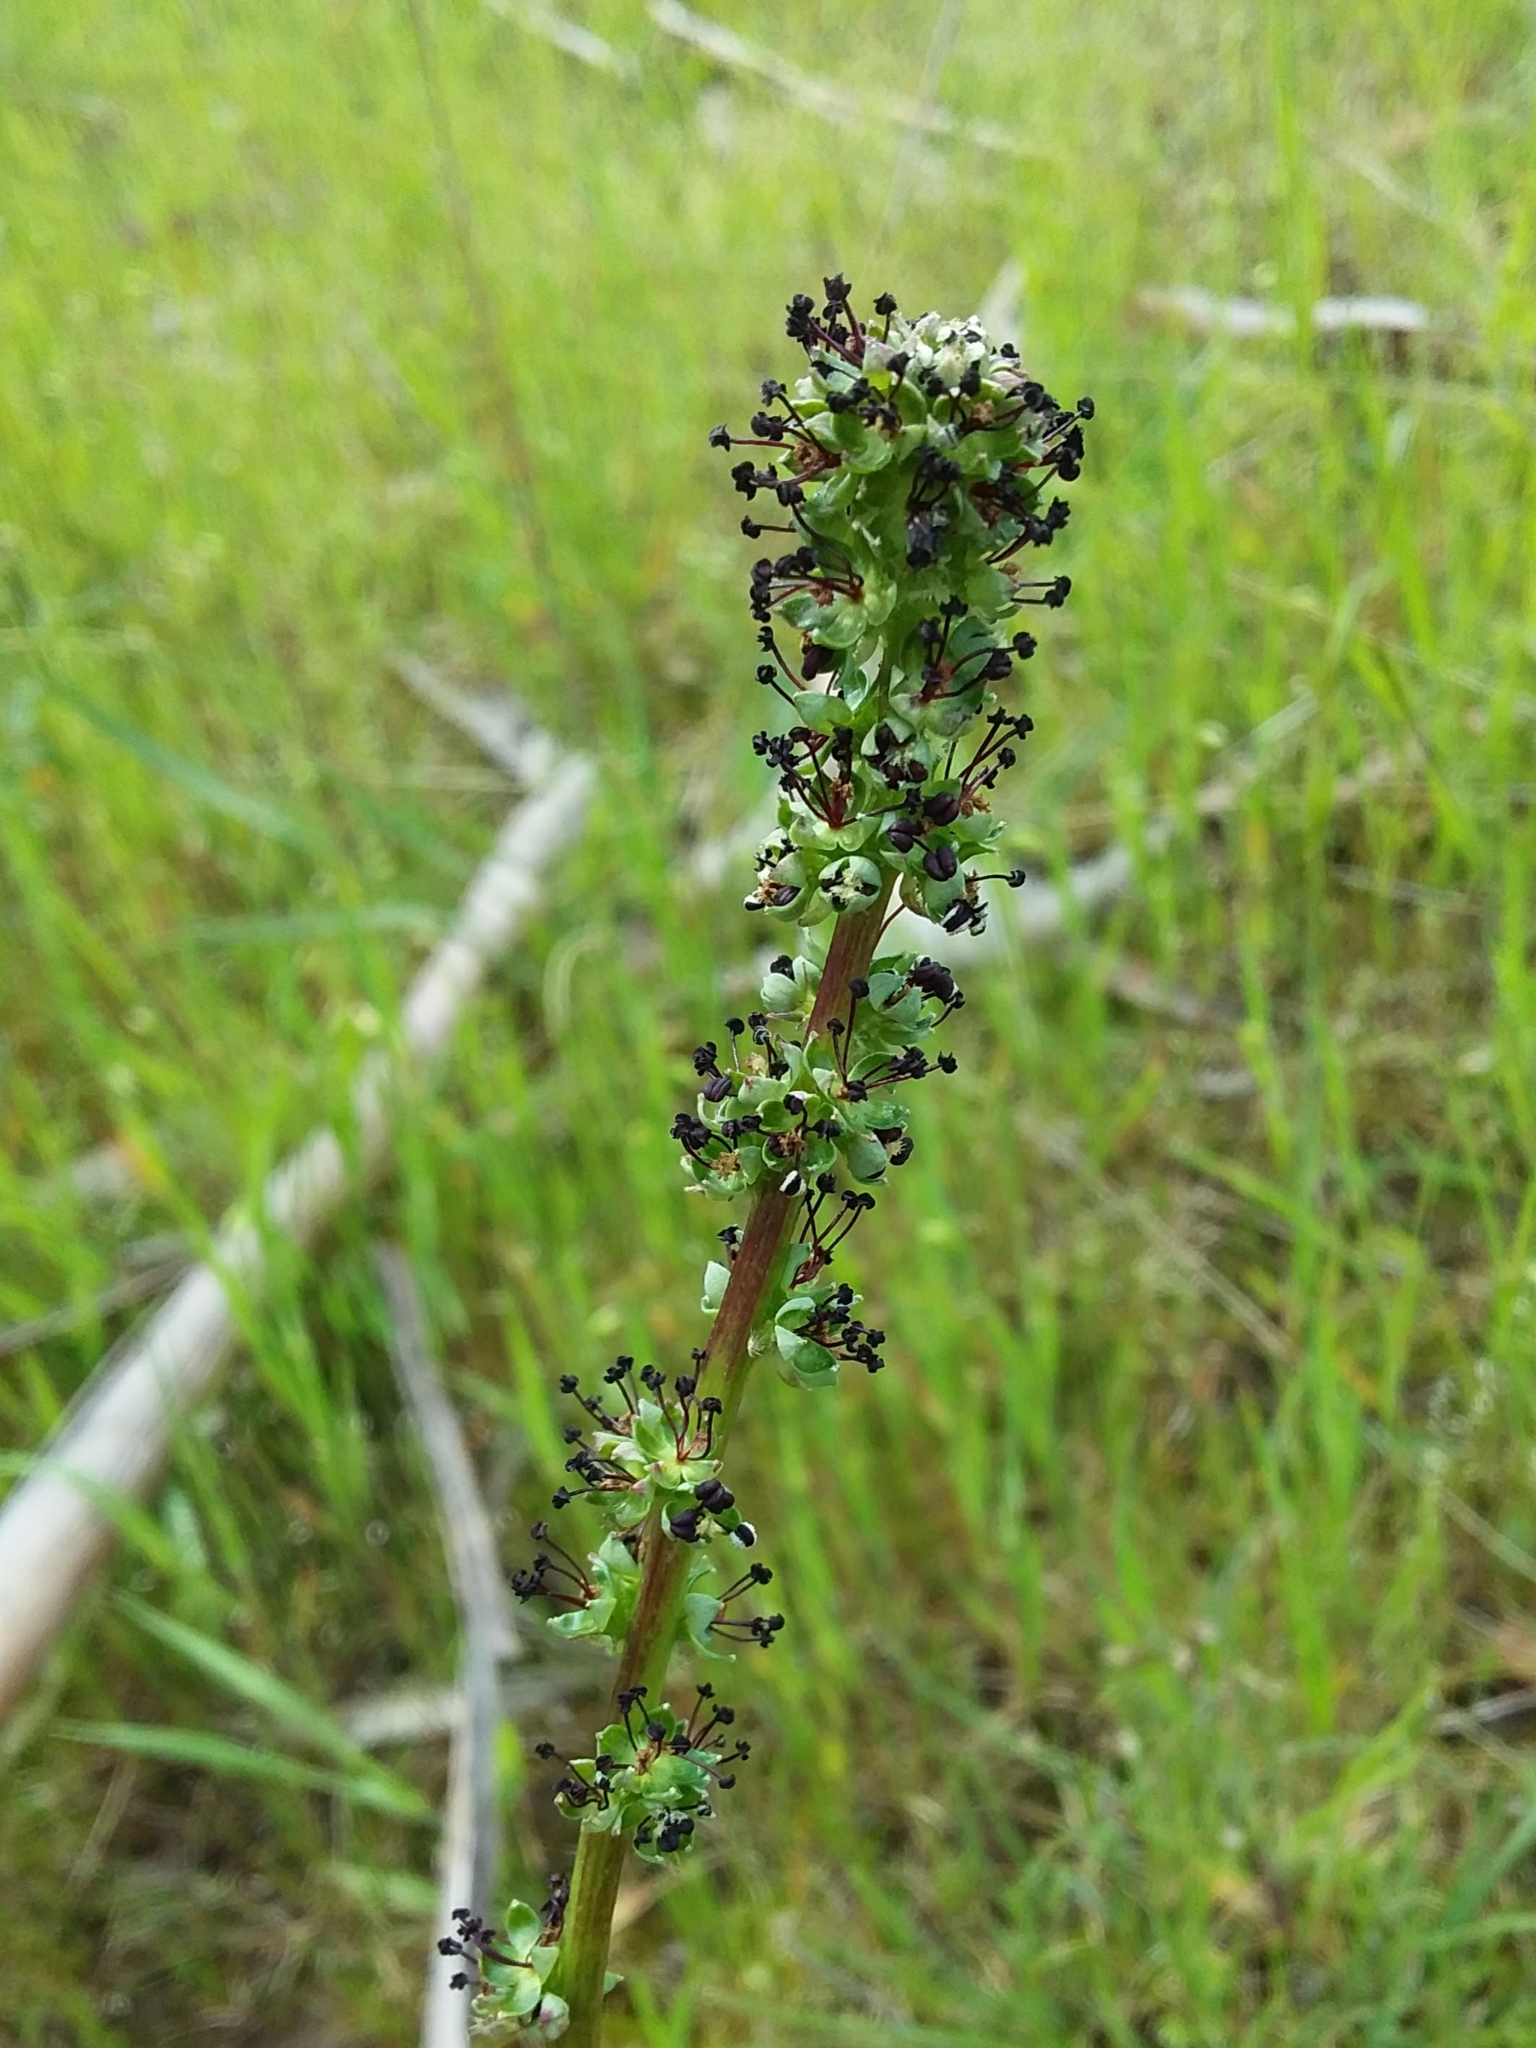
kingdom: Plantae
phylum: Tracheophyta
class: Magnoliopsida
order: Rosales
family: Rosaceae
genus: Acaena
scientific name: Acaena echinata
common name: Sheepbur
